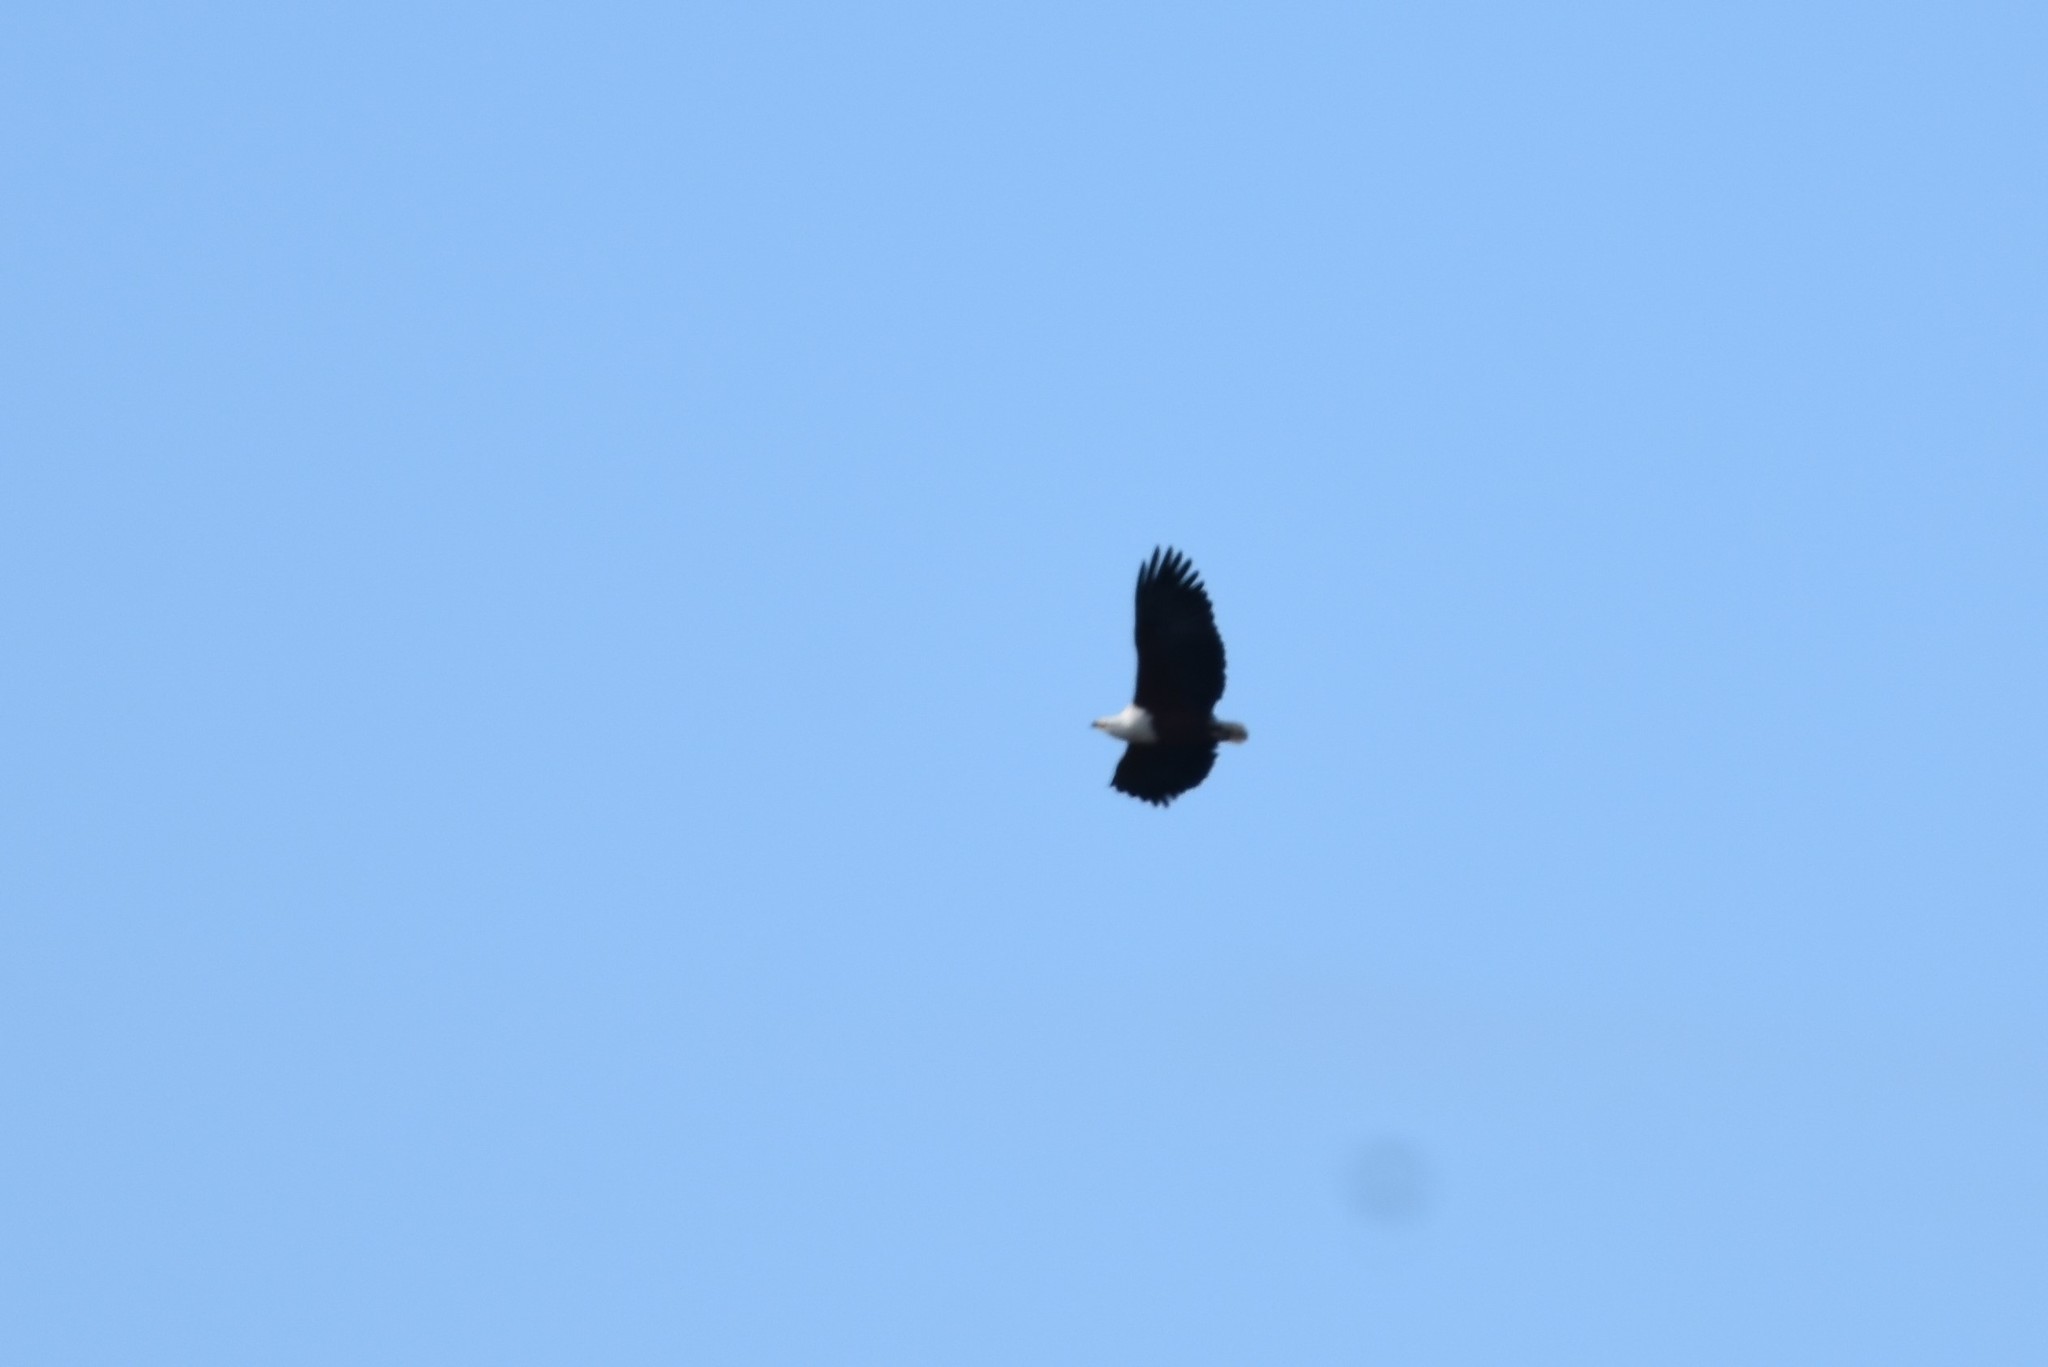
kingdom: Animalia
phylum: Chordata
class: Aves
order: Accipitriformes
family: Accipitridae
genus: Haliaeetus
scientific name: Haliaeetus vocifer
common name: African fish eagle
